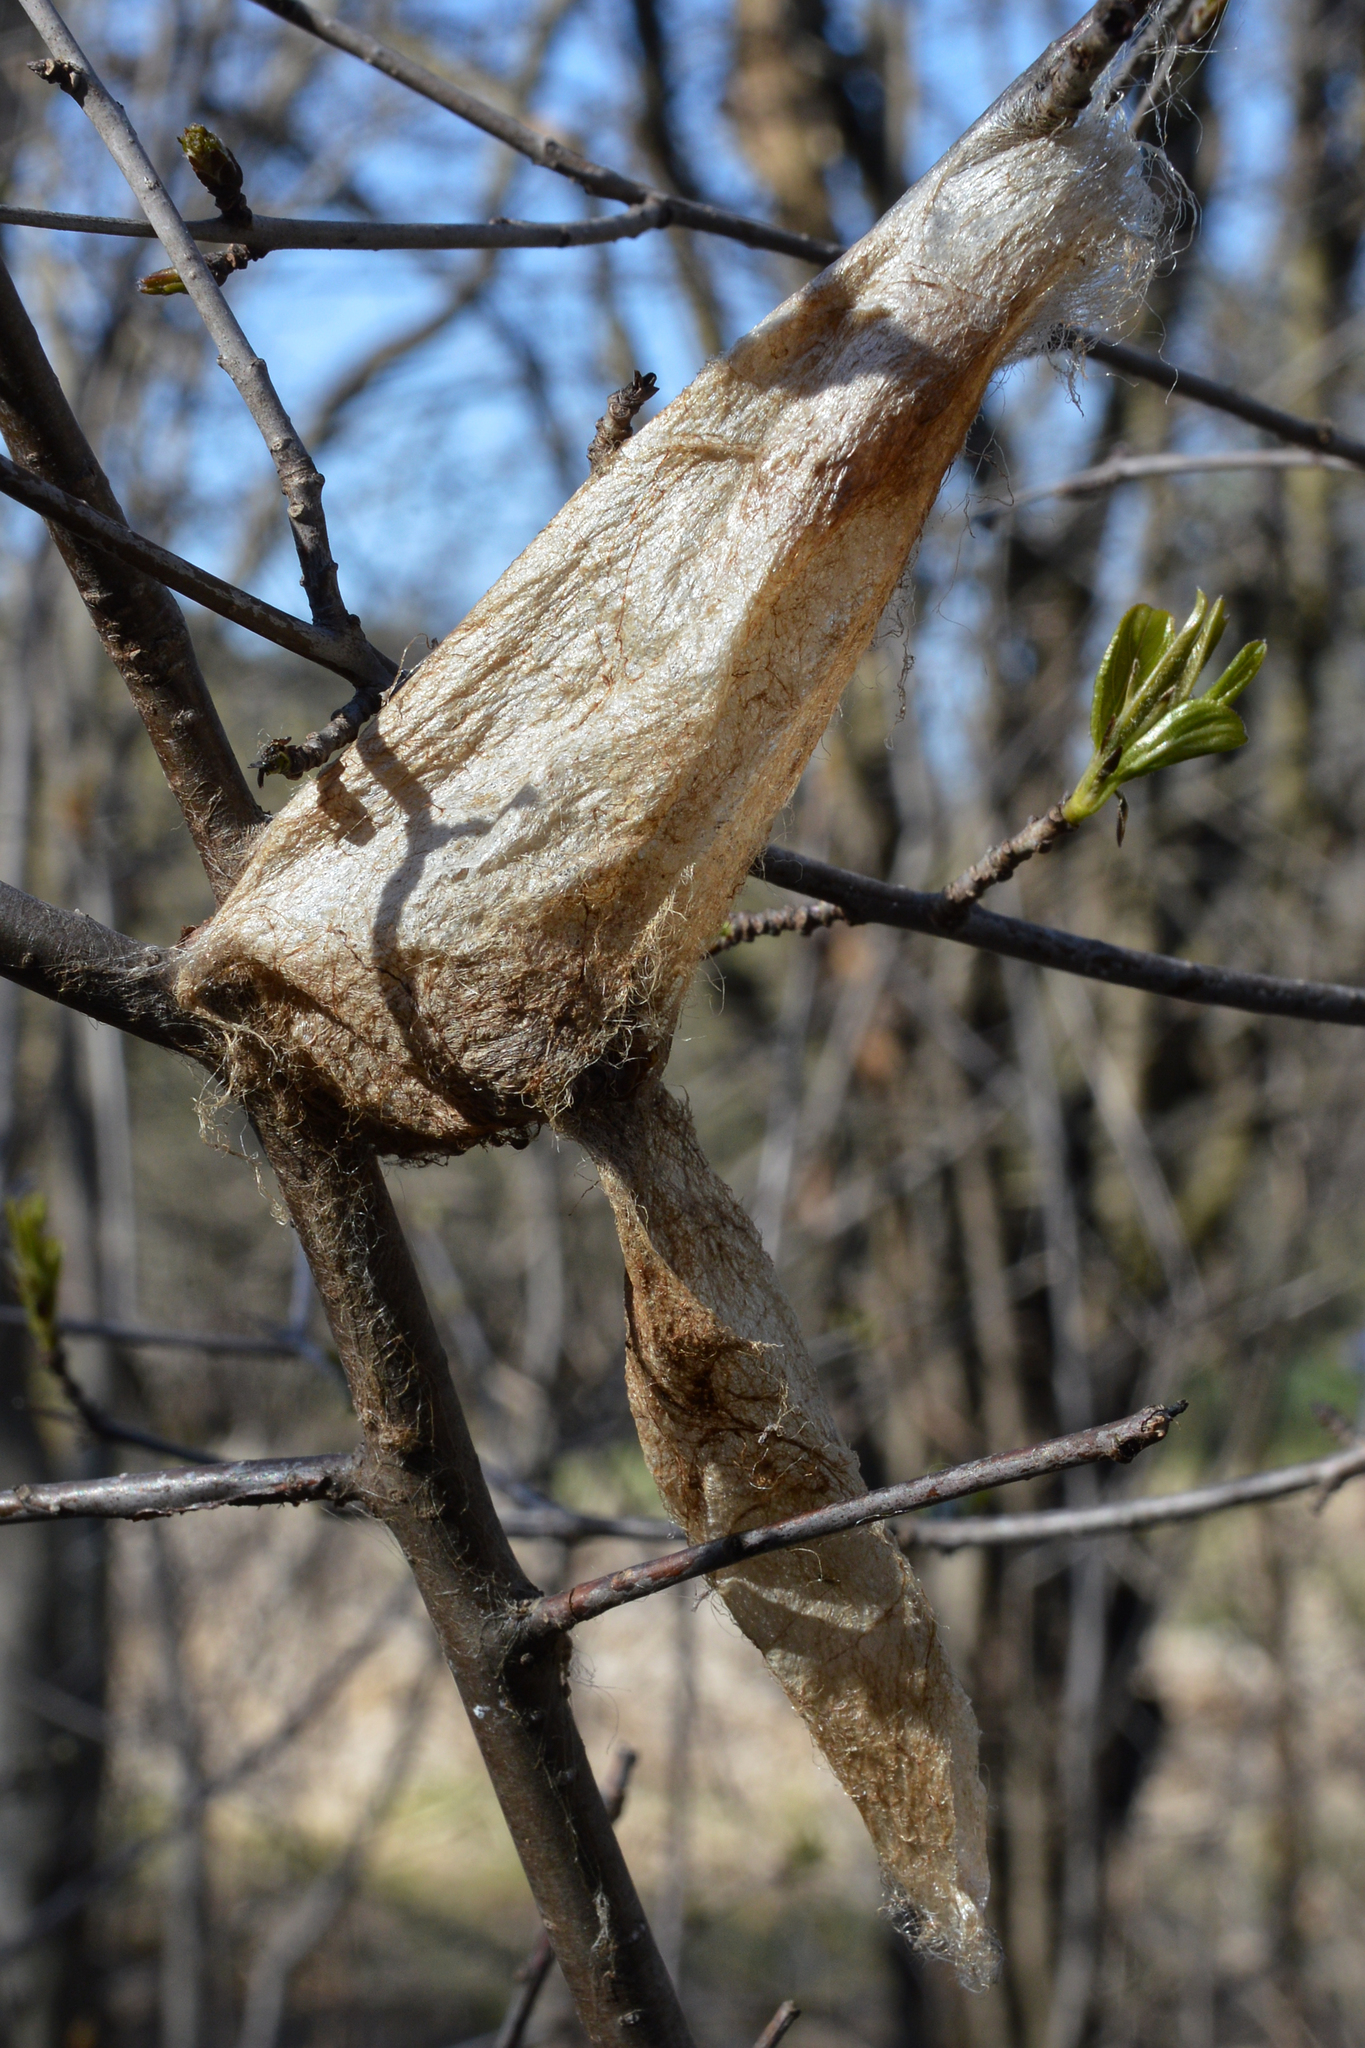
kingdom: Animalia
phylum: Arthropoda
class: Insecta
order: Lepidoptera
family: Saturniidae
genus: Hyalophora
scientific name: Hyalophora cecropia
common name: Cecropia silkmoth
